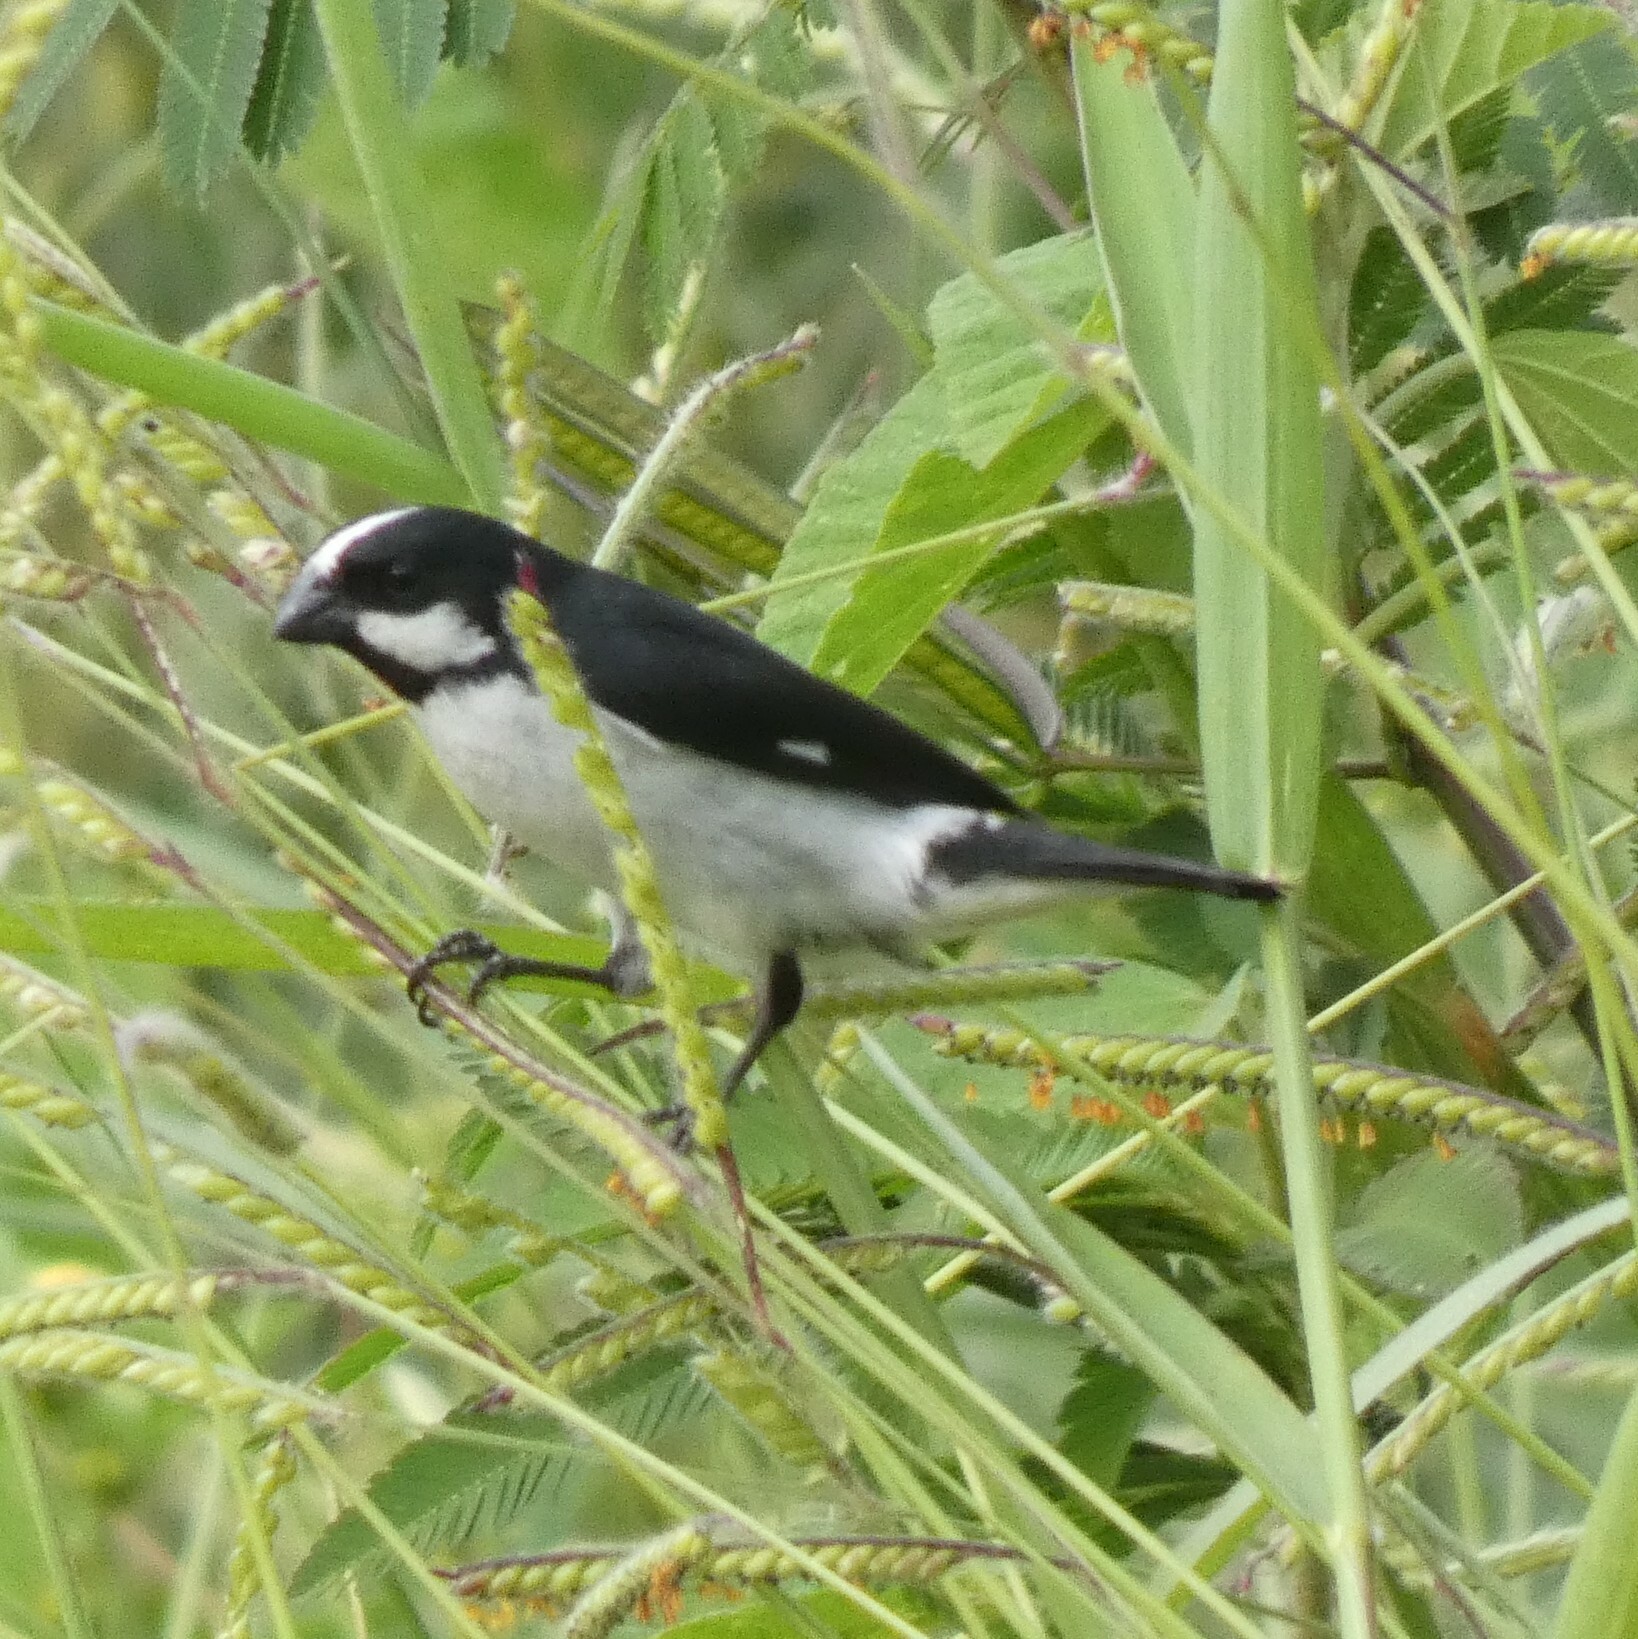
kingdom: Animalia
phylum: Chordata
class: Aves
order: Passeriformes
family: Thraupidae
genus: Sporophila
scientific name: Sporophila lineola
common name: Lined seedeater
